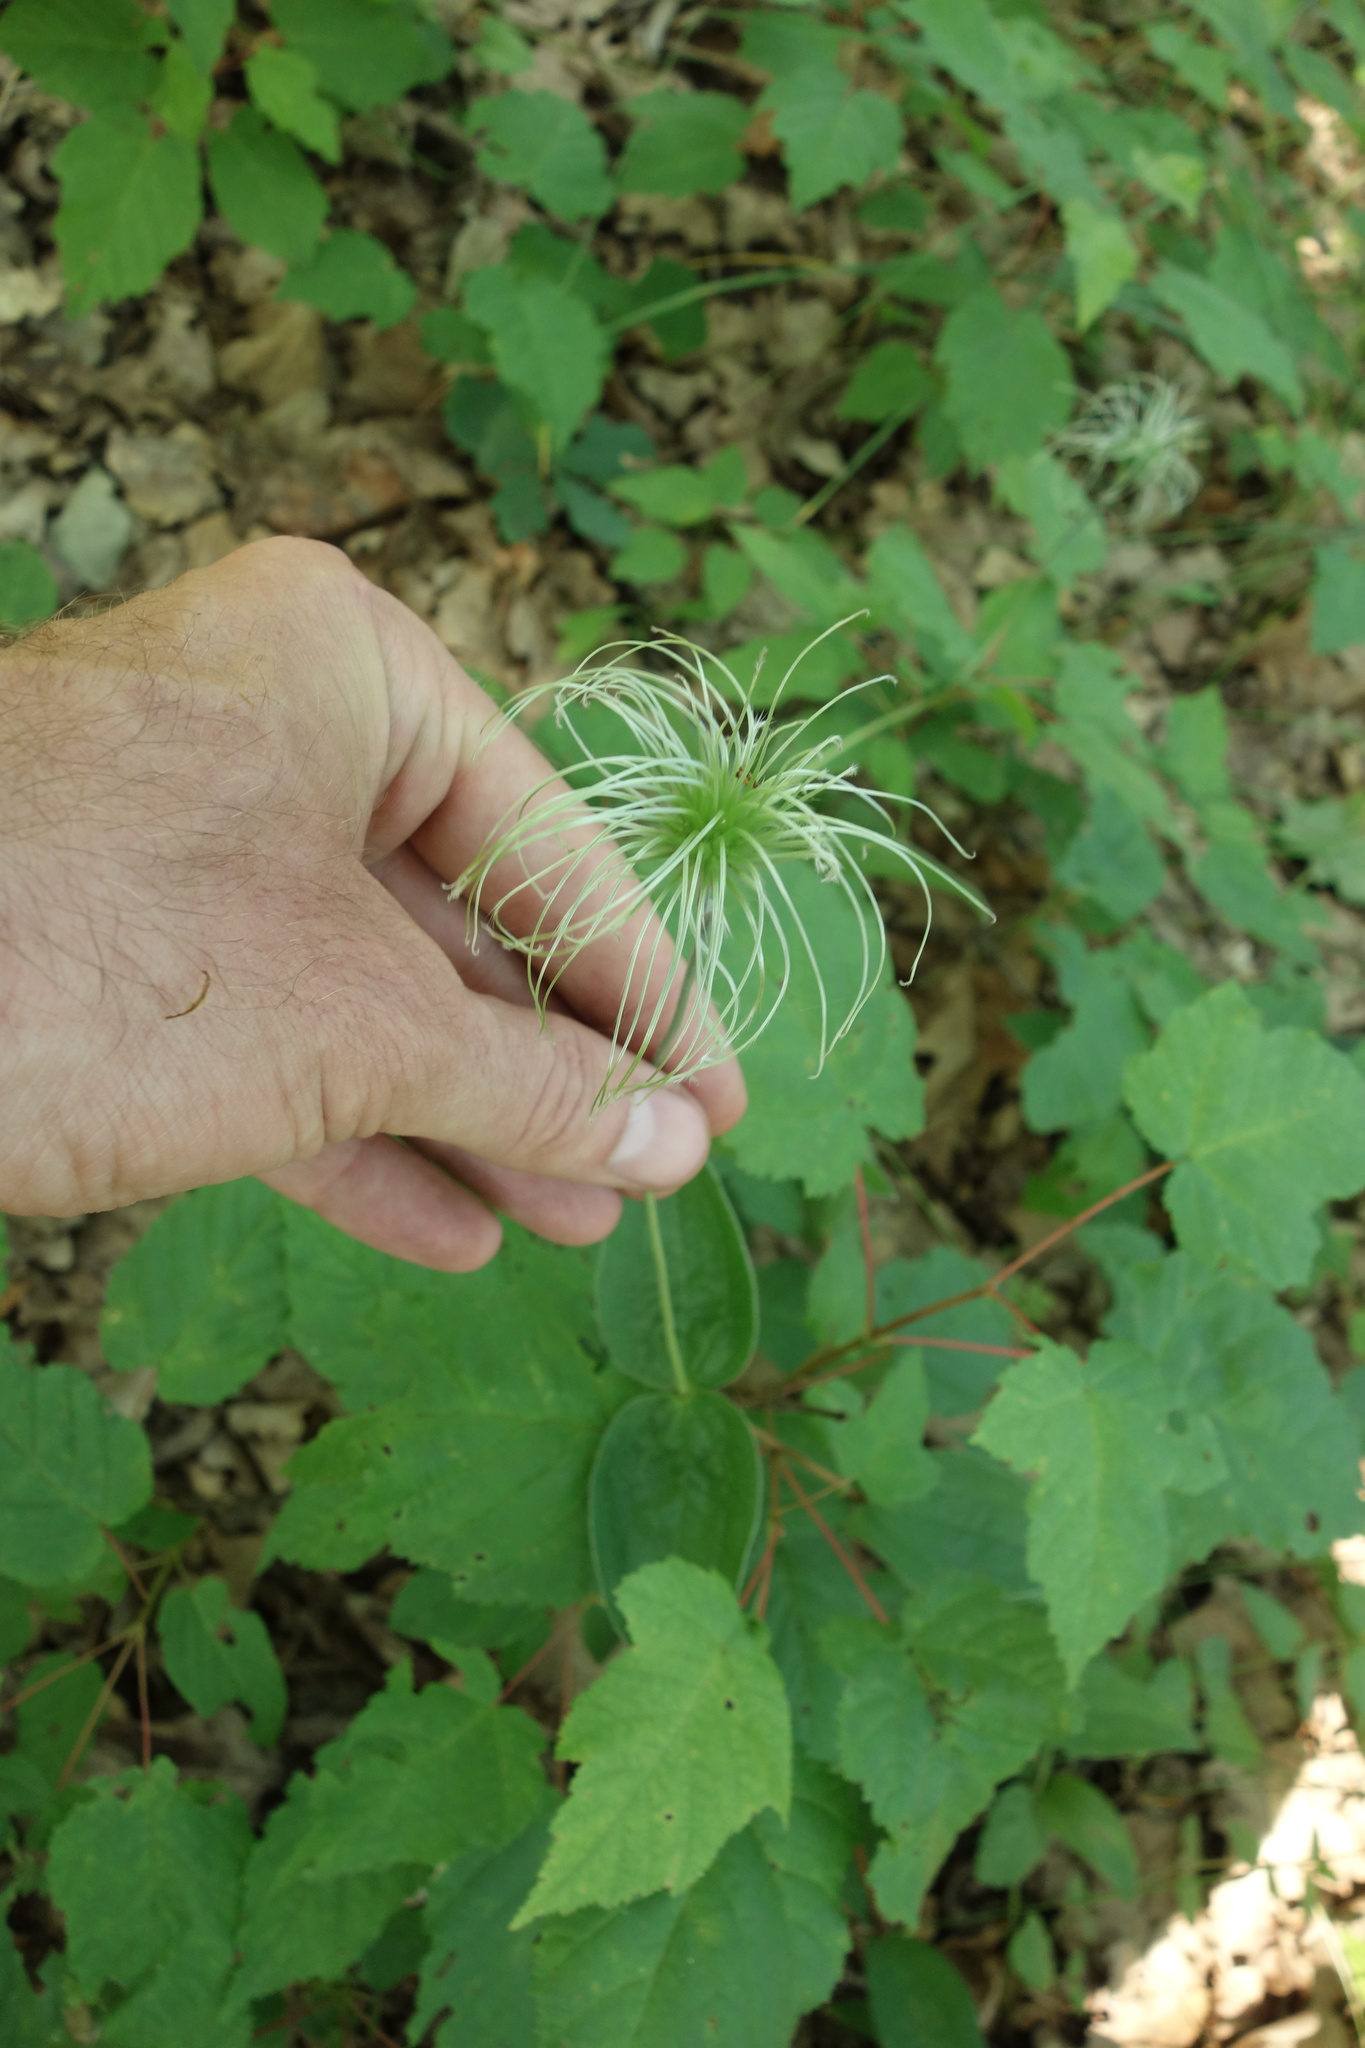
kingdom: Plantae
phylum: Tracheophyta
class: Magnoliopsida
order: Ranunculales
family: Ranunculaceae
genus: Clematis
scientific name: Clematis integrifolia
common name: Solitary clematis
